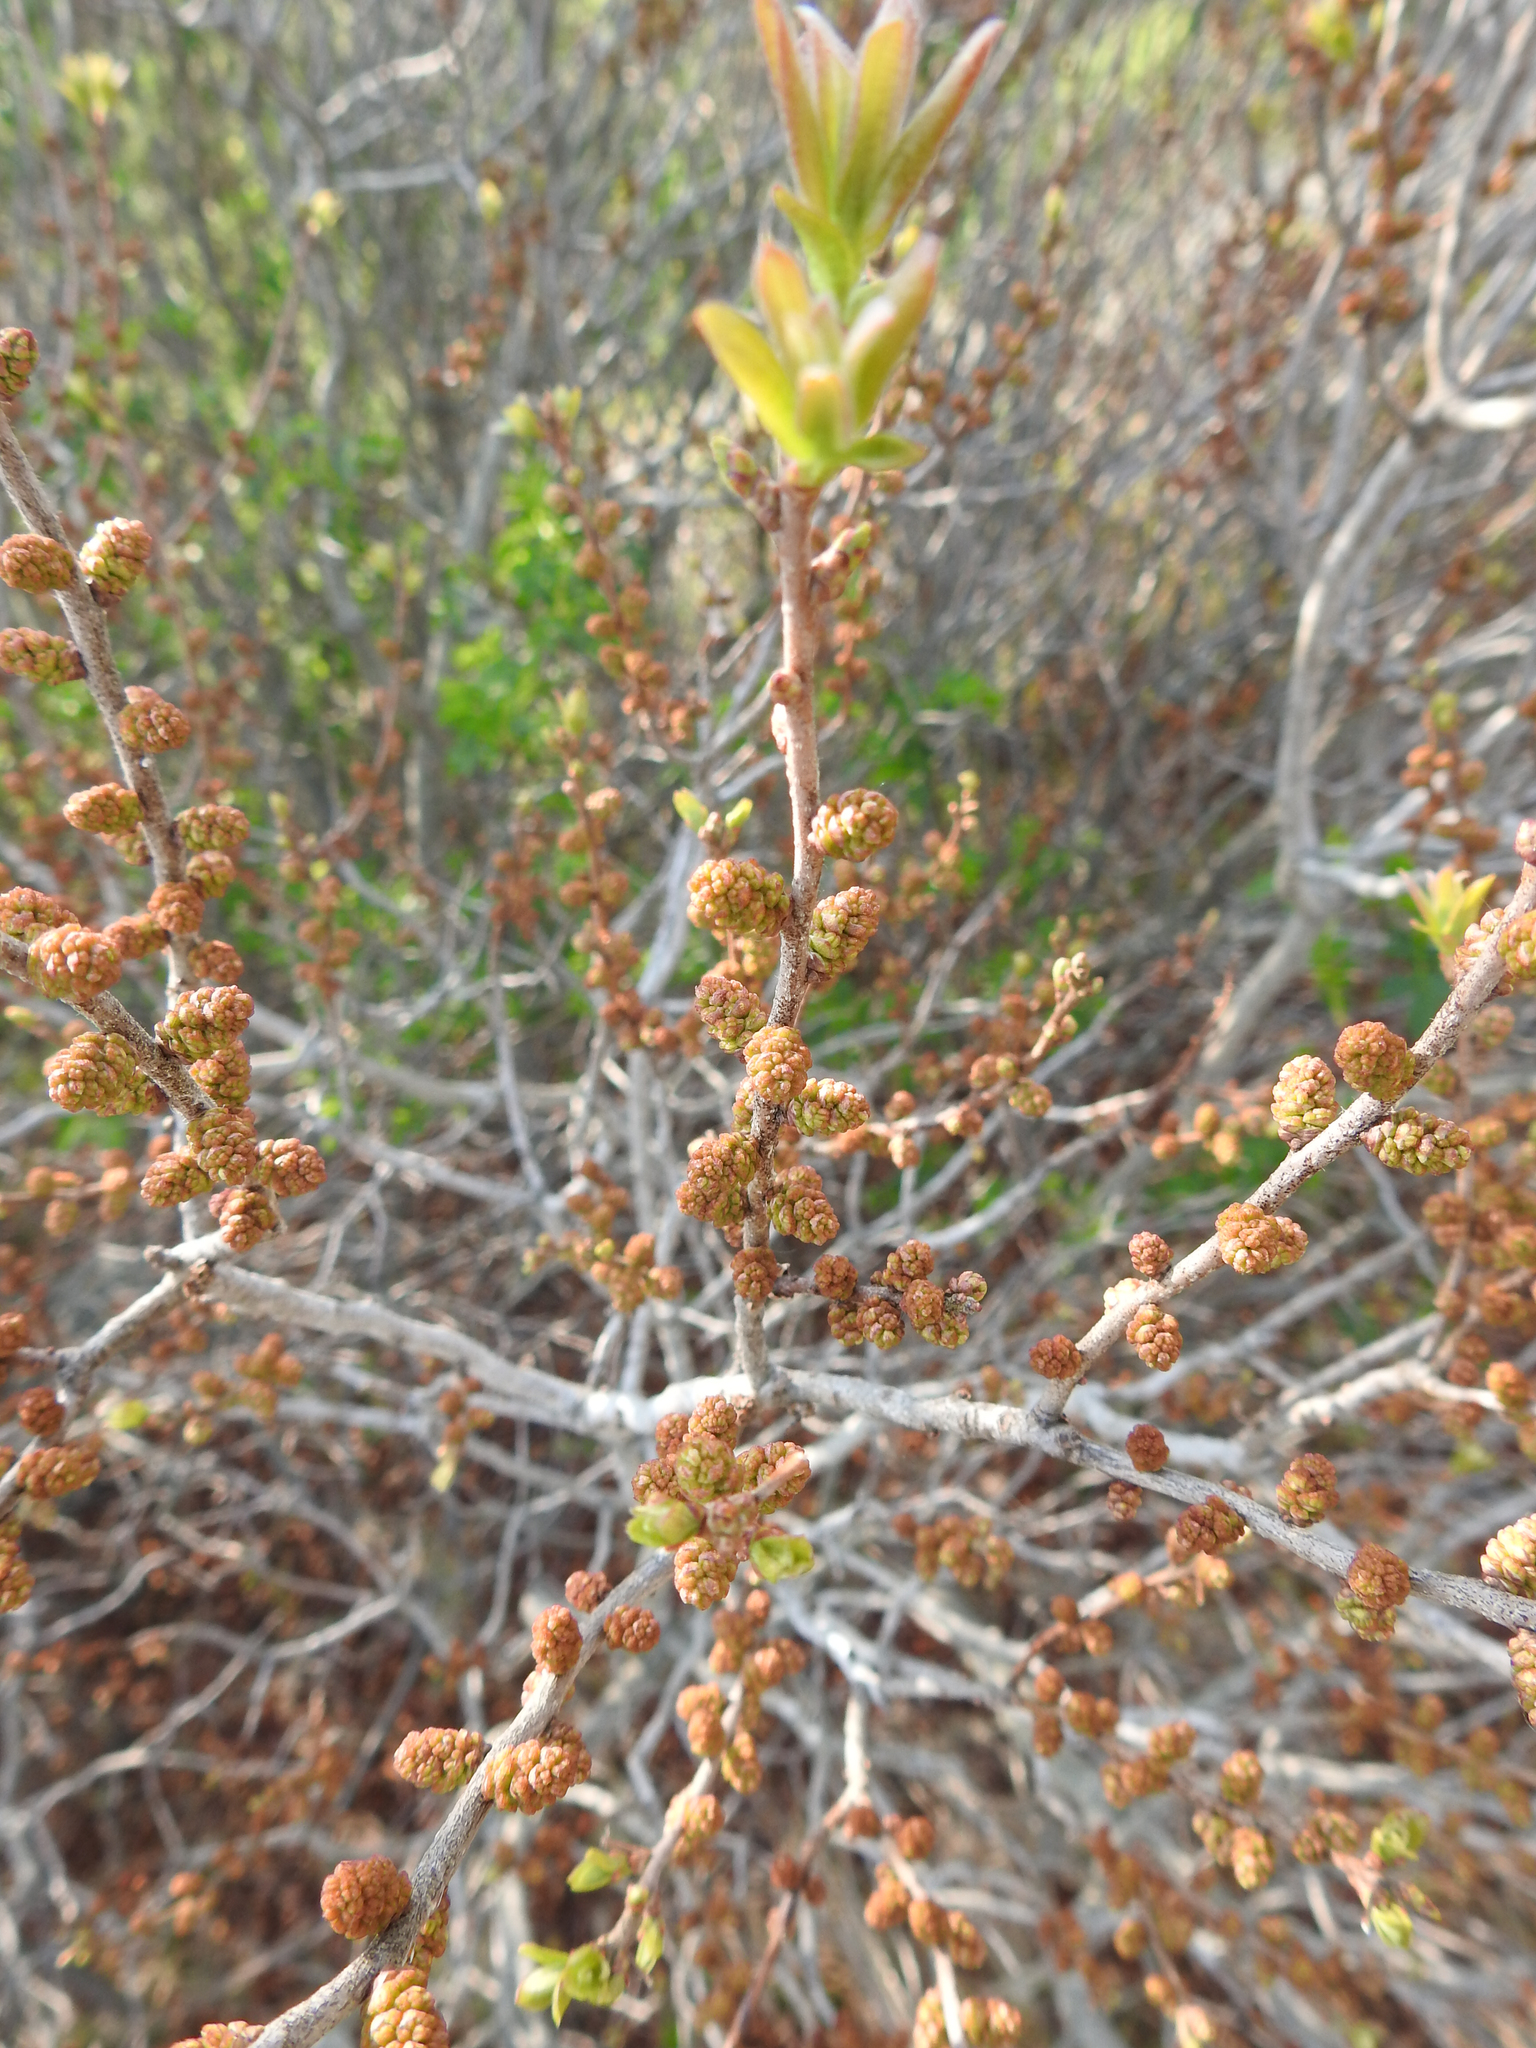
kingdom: Plantae
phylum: Tracheophyta
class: Magnoliopsida
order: Fagales
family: Myricaceae
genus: Morella
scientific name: Morella pensylvanica
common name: Northern bayberry
